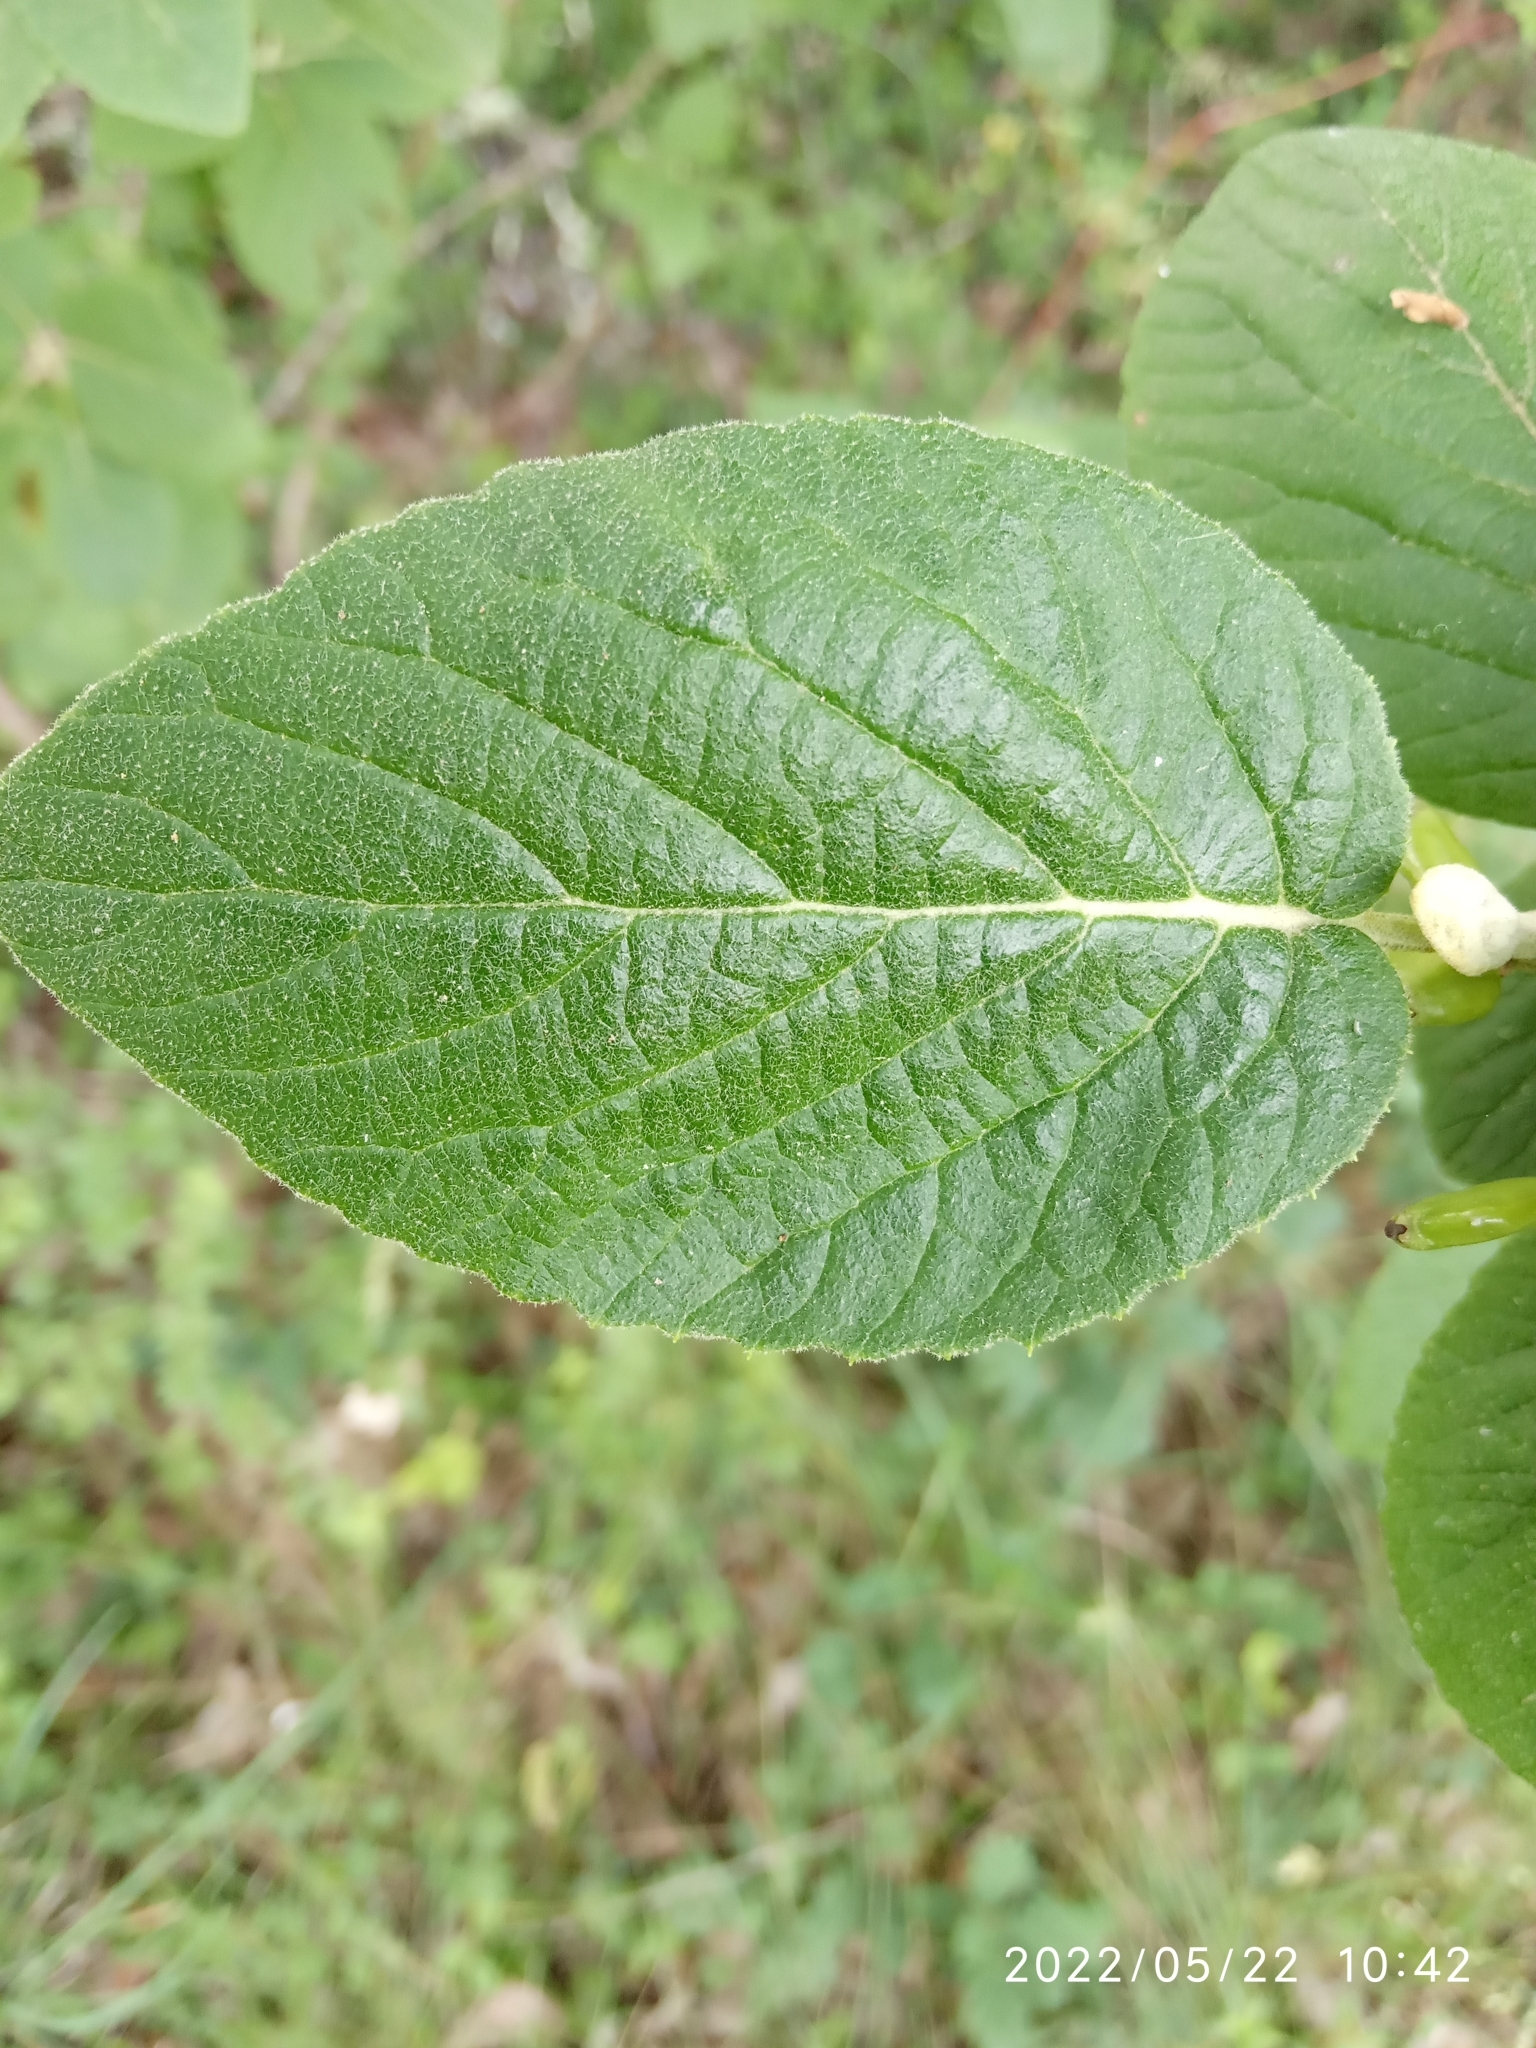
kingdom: Plantae
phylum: Tracheophyta
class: Magnoliopsida
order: Dipsacales
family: Viburnaceae
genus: Viburnum
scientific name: Viburnum lantana
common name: Wayfaring tree
